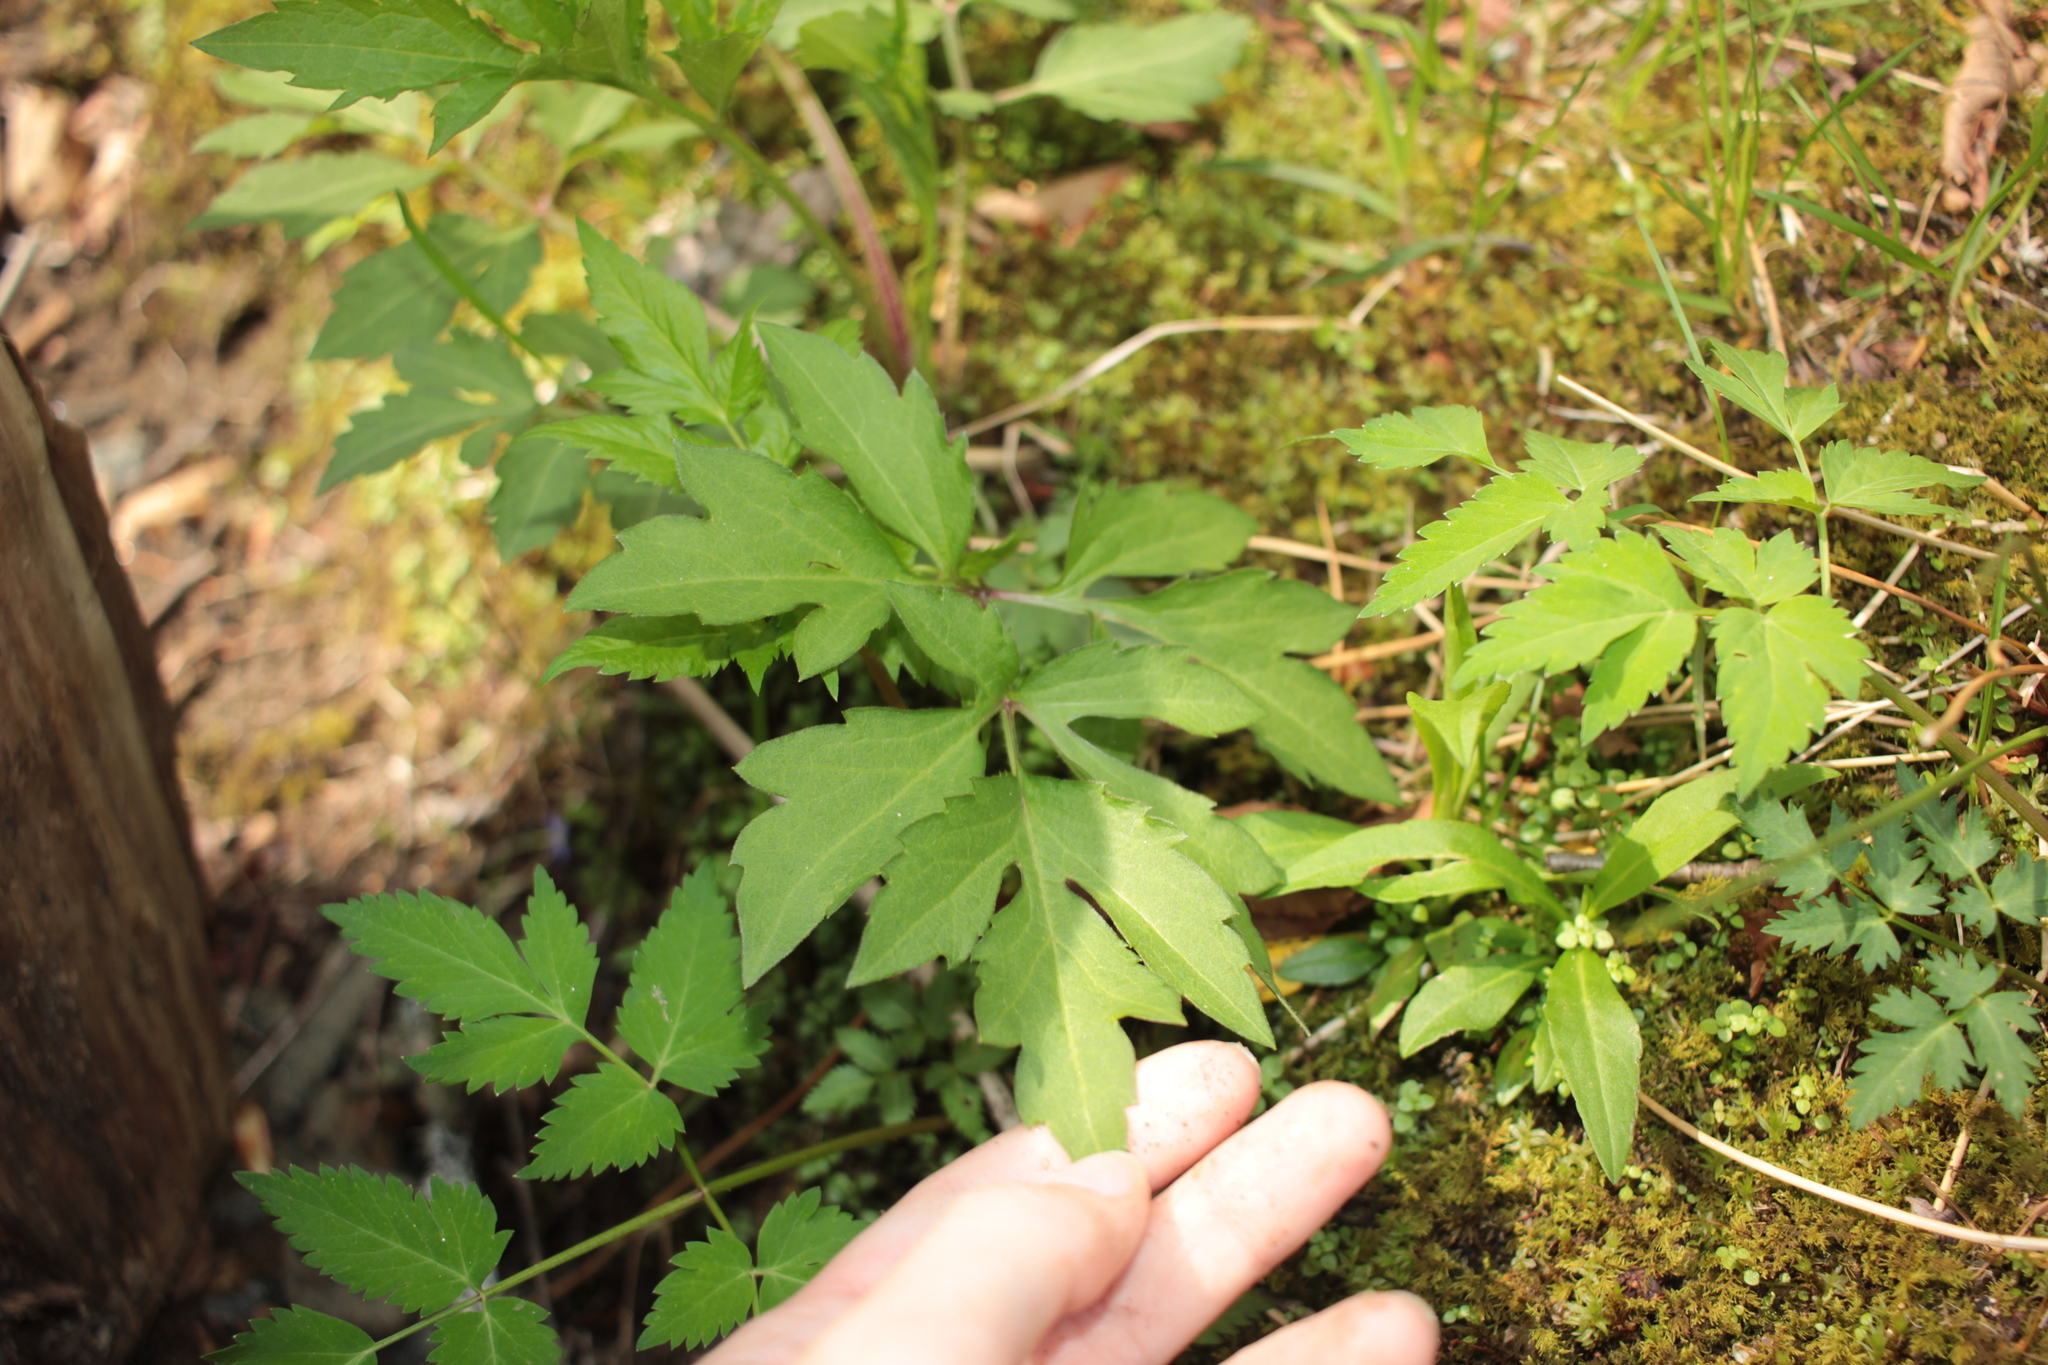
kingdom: Plantae
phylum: Tracheophyta
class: Magnoliopsida
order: Asterales
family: Asteraceae
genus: Rudbeckia
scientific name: Rudbeckia laciniata
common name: Coneflower
